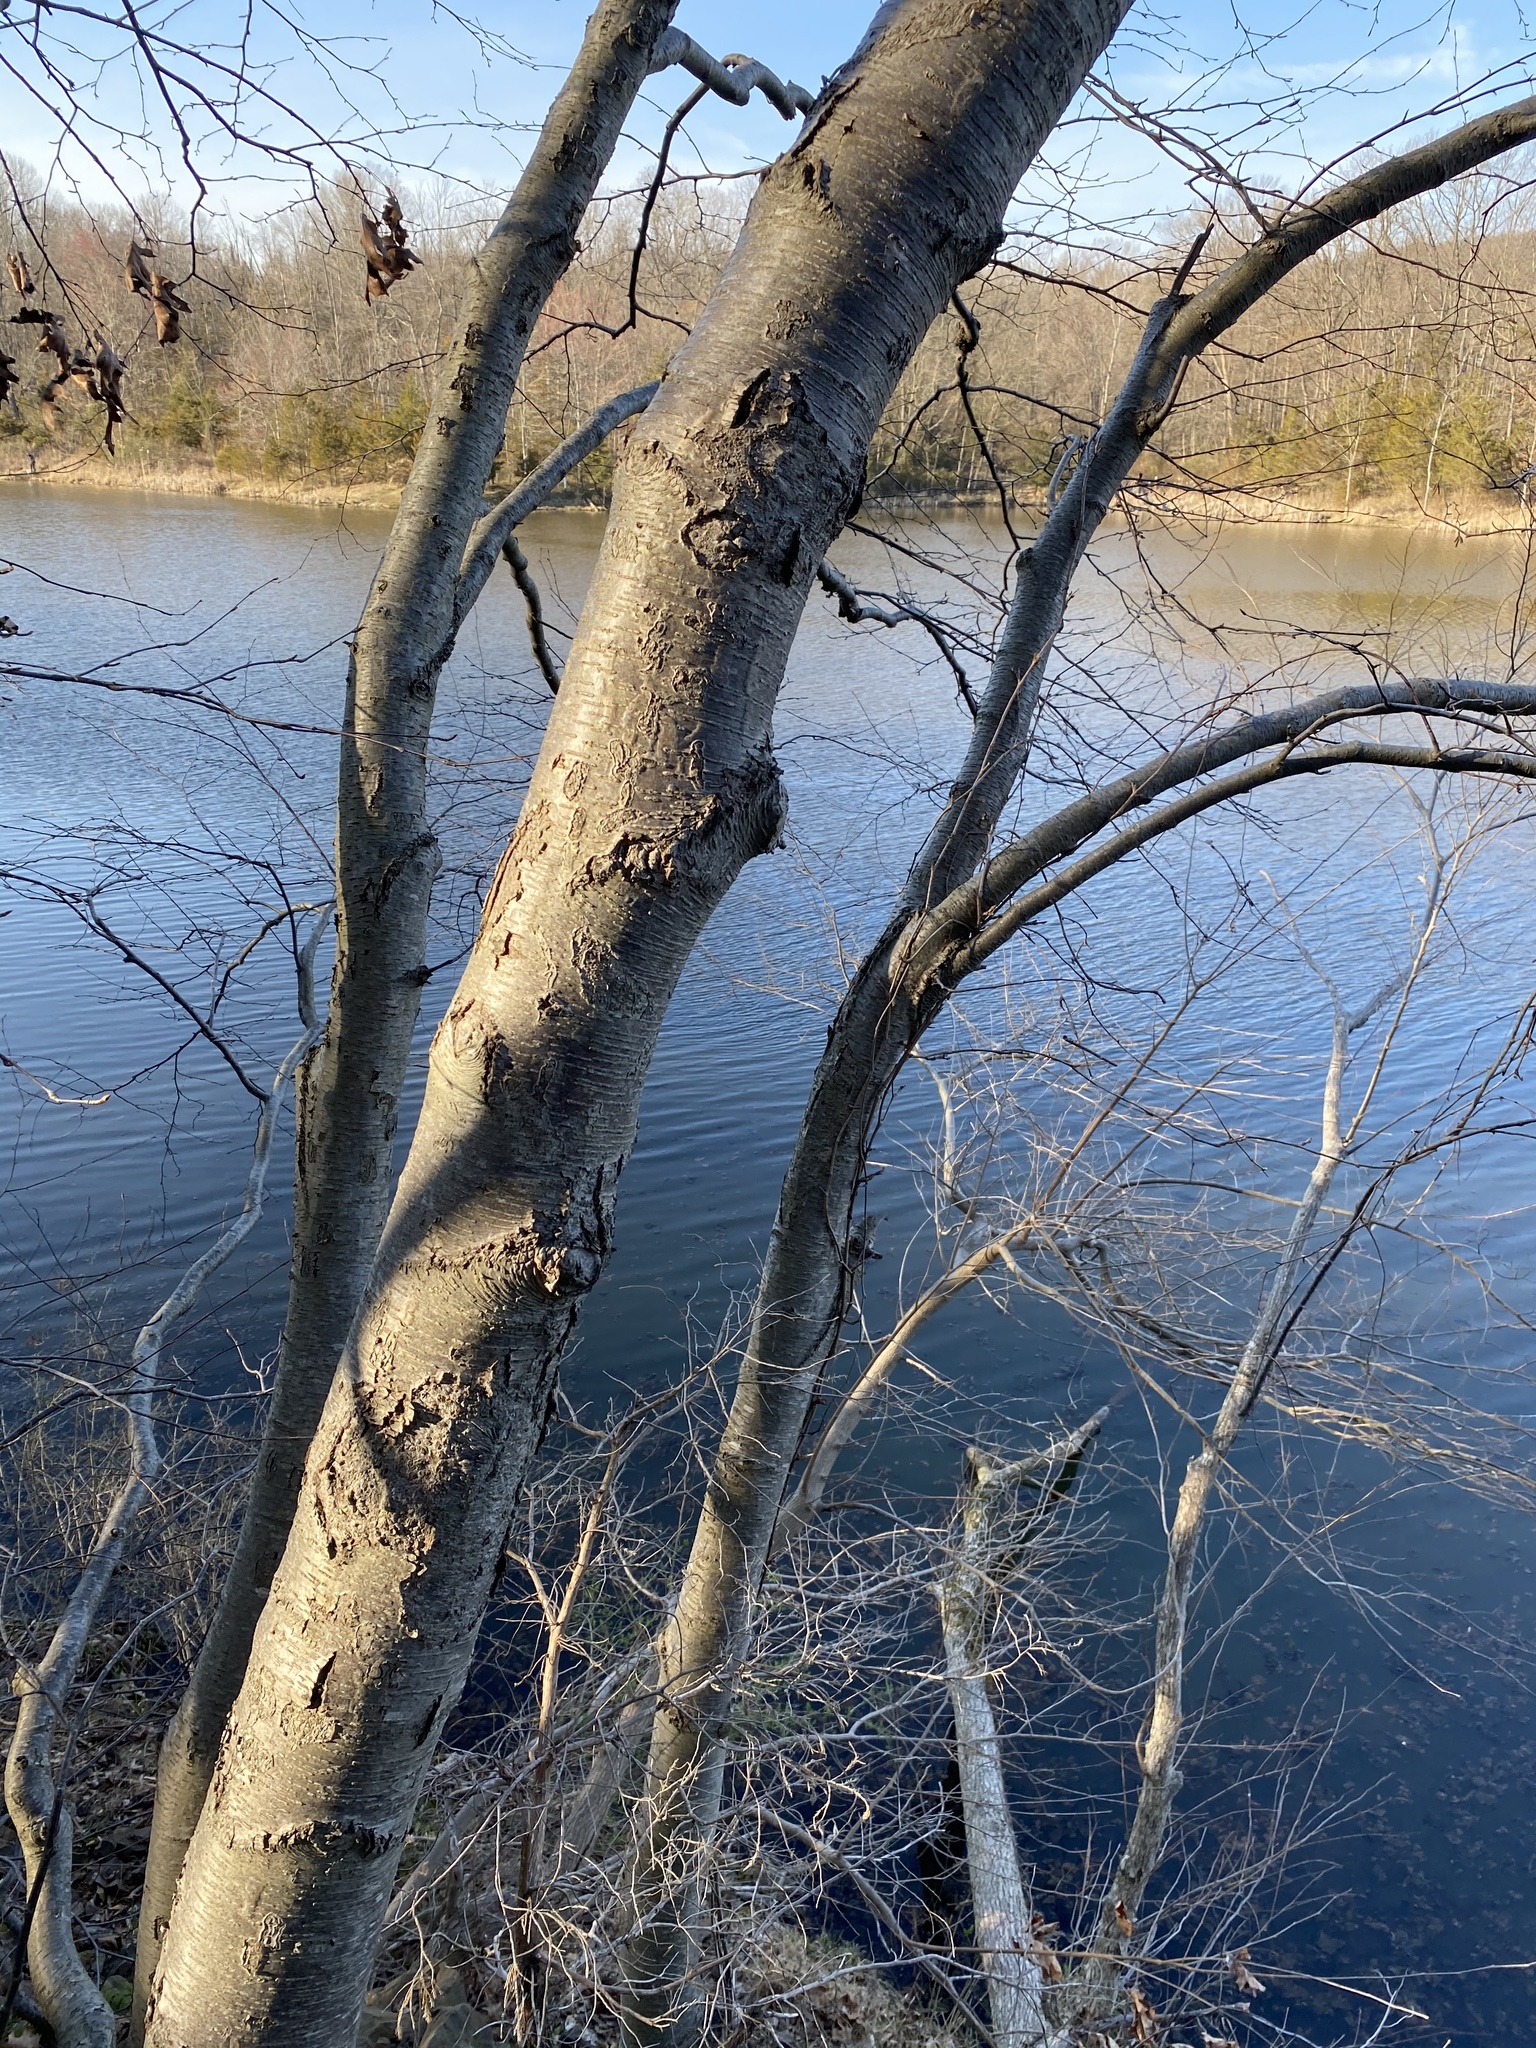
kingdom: Plantae
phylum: Tracheophyta
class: Magnoliopsida
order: Fagales
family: Betulaceae
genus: Betula
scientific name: Betula lenta
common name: Black birch
